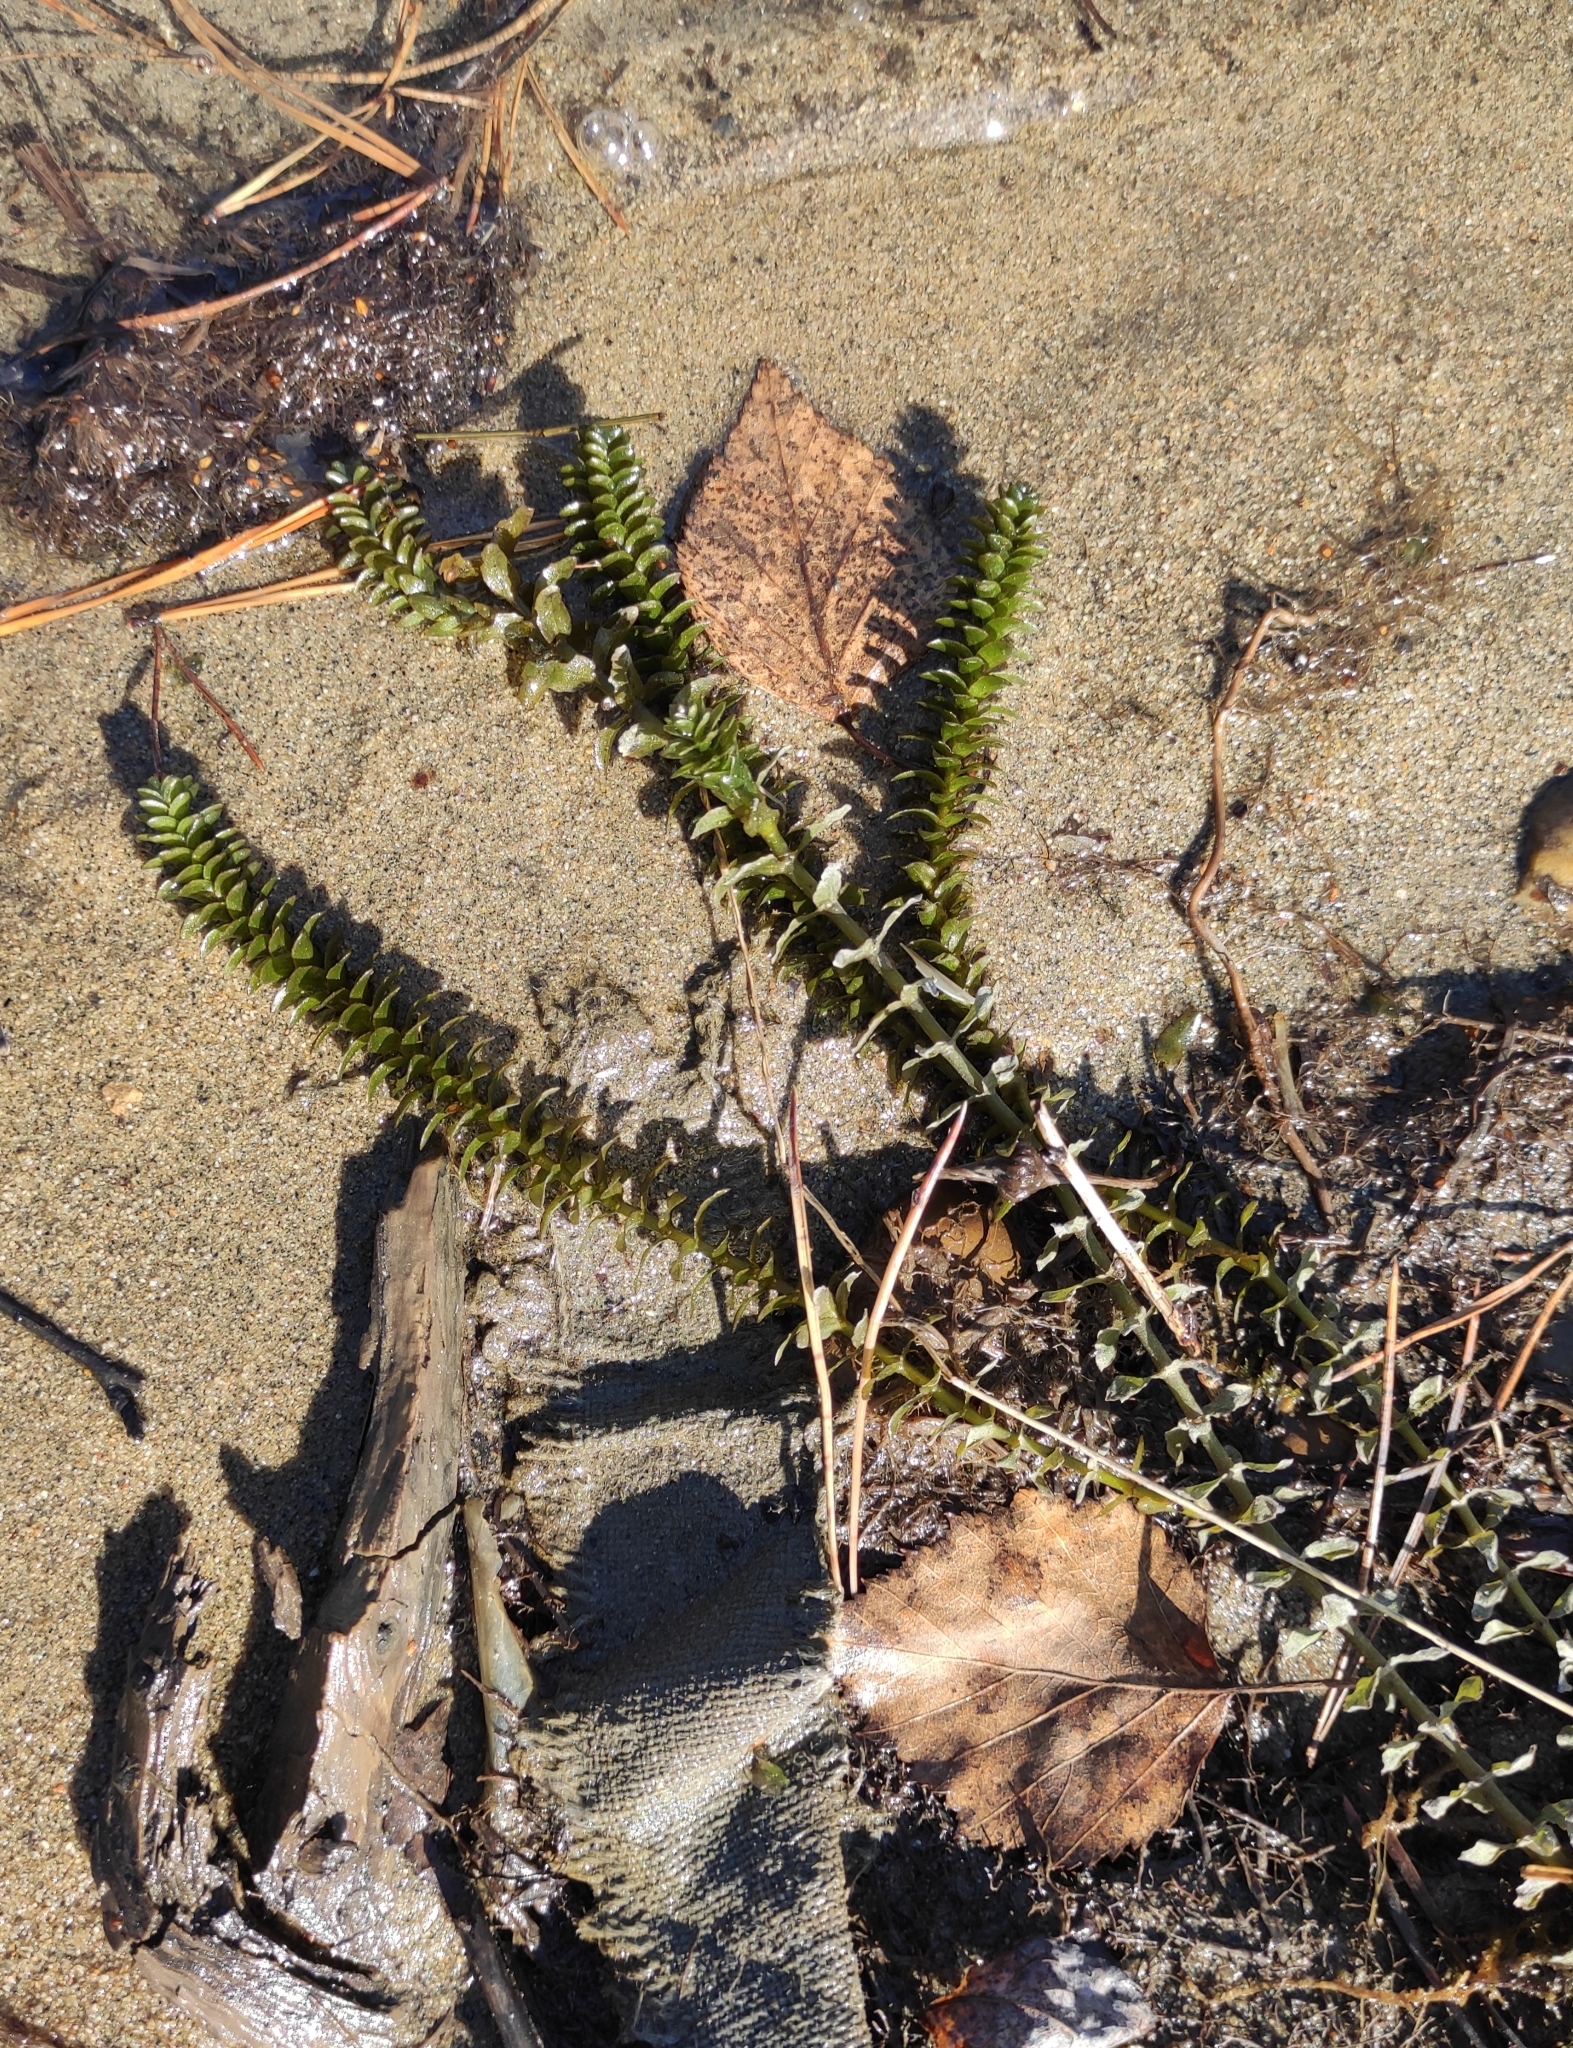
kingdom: Plantae
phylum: Tracheophyta
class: Liliopsida
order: Alismatales
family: Hydrocharitaceae
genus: Elodea
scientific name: Elodea canadensis
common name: Canadian waterweed
